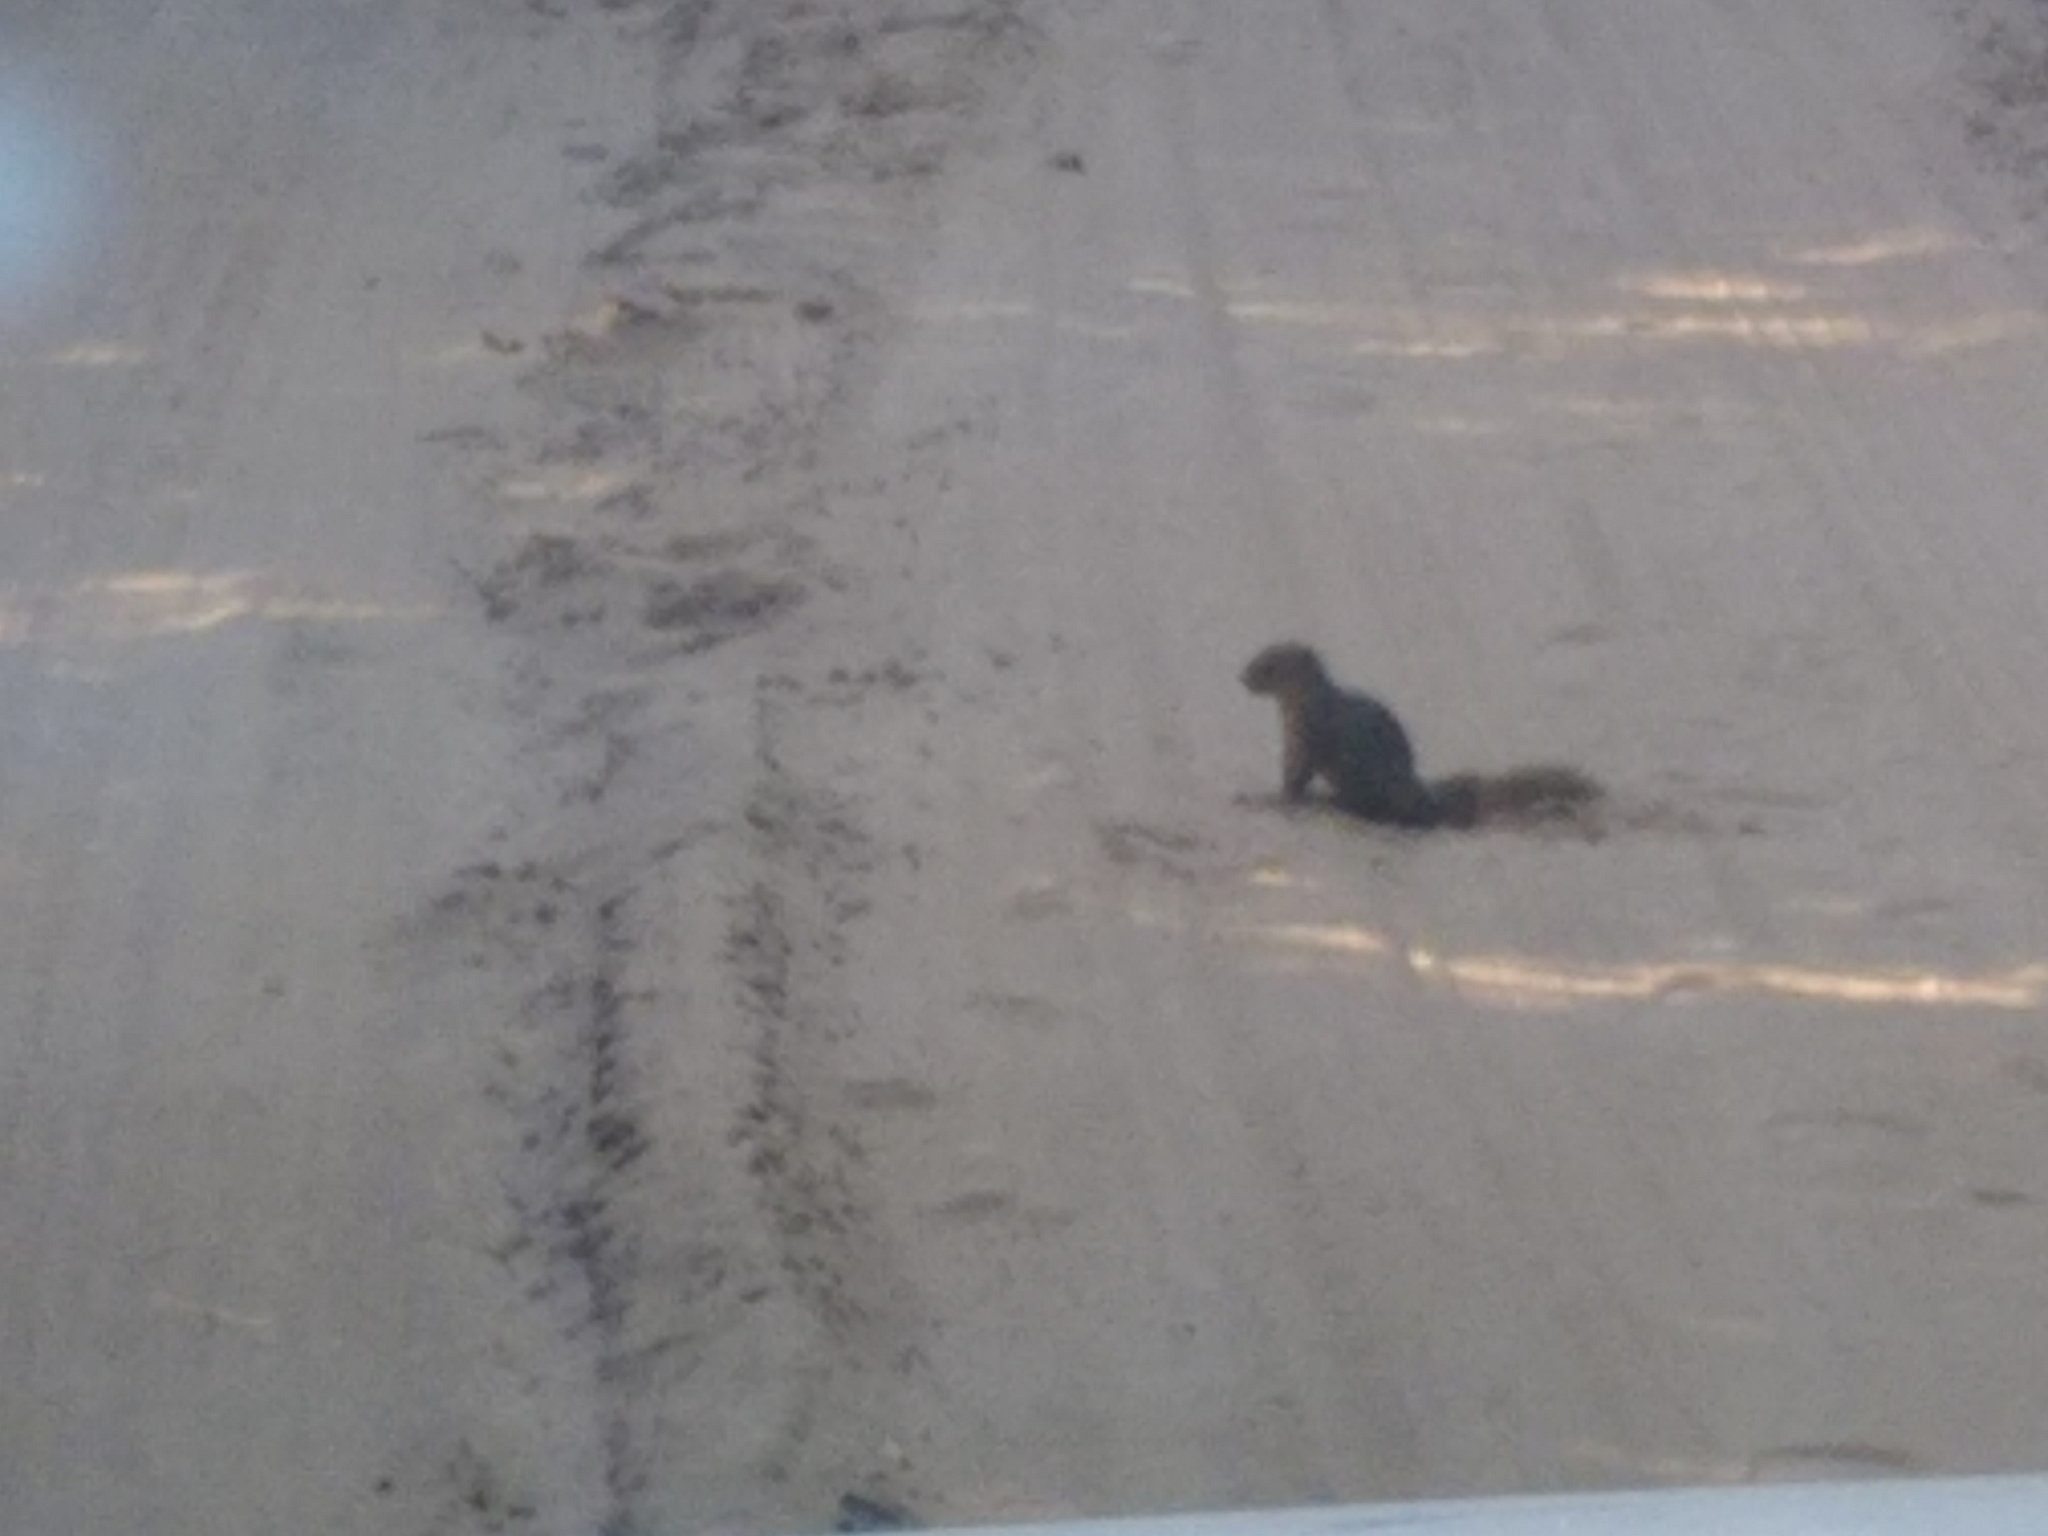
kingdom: Animalia
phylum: Chordata
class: Mammalia
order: Rodentia
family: Sciuridae
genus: Paraxerus
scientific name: Paraxerus palliatus
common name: Red bush squirrel
